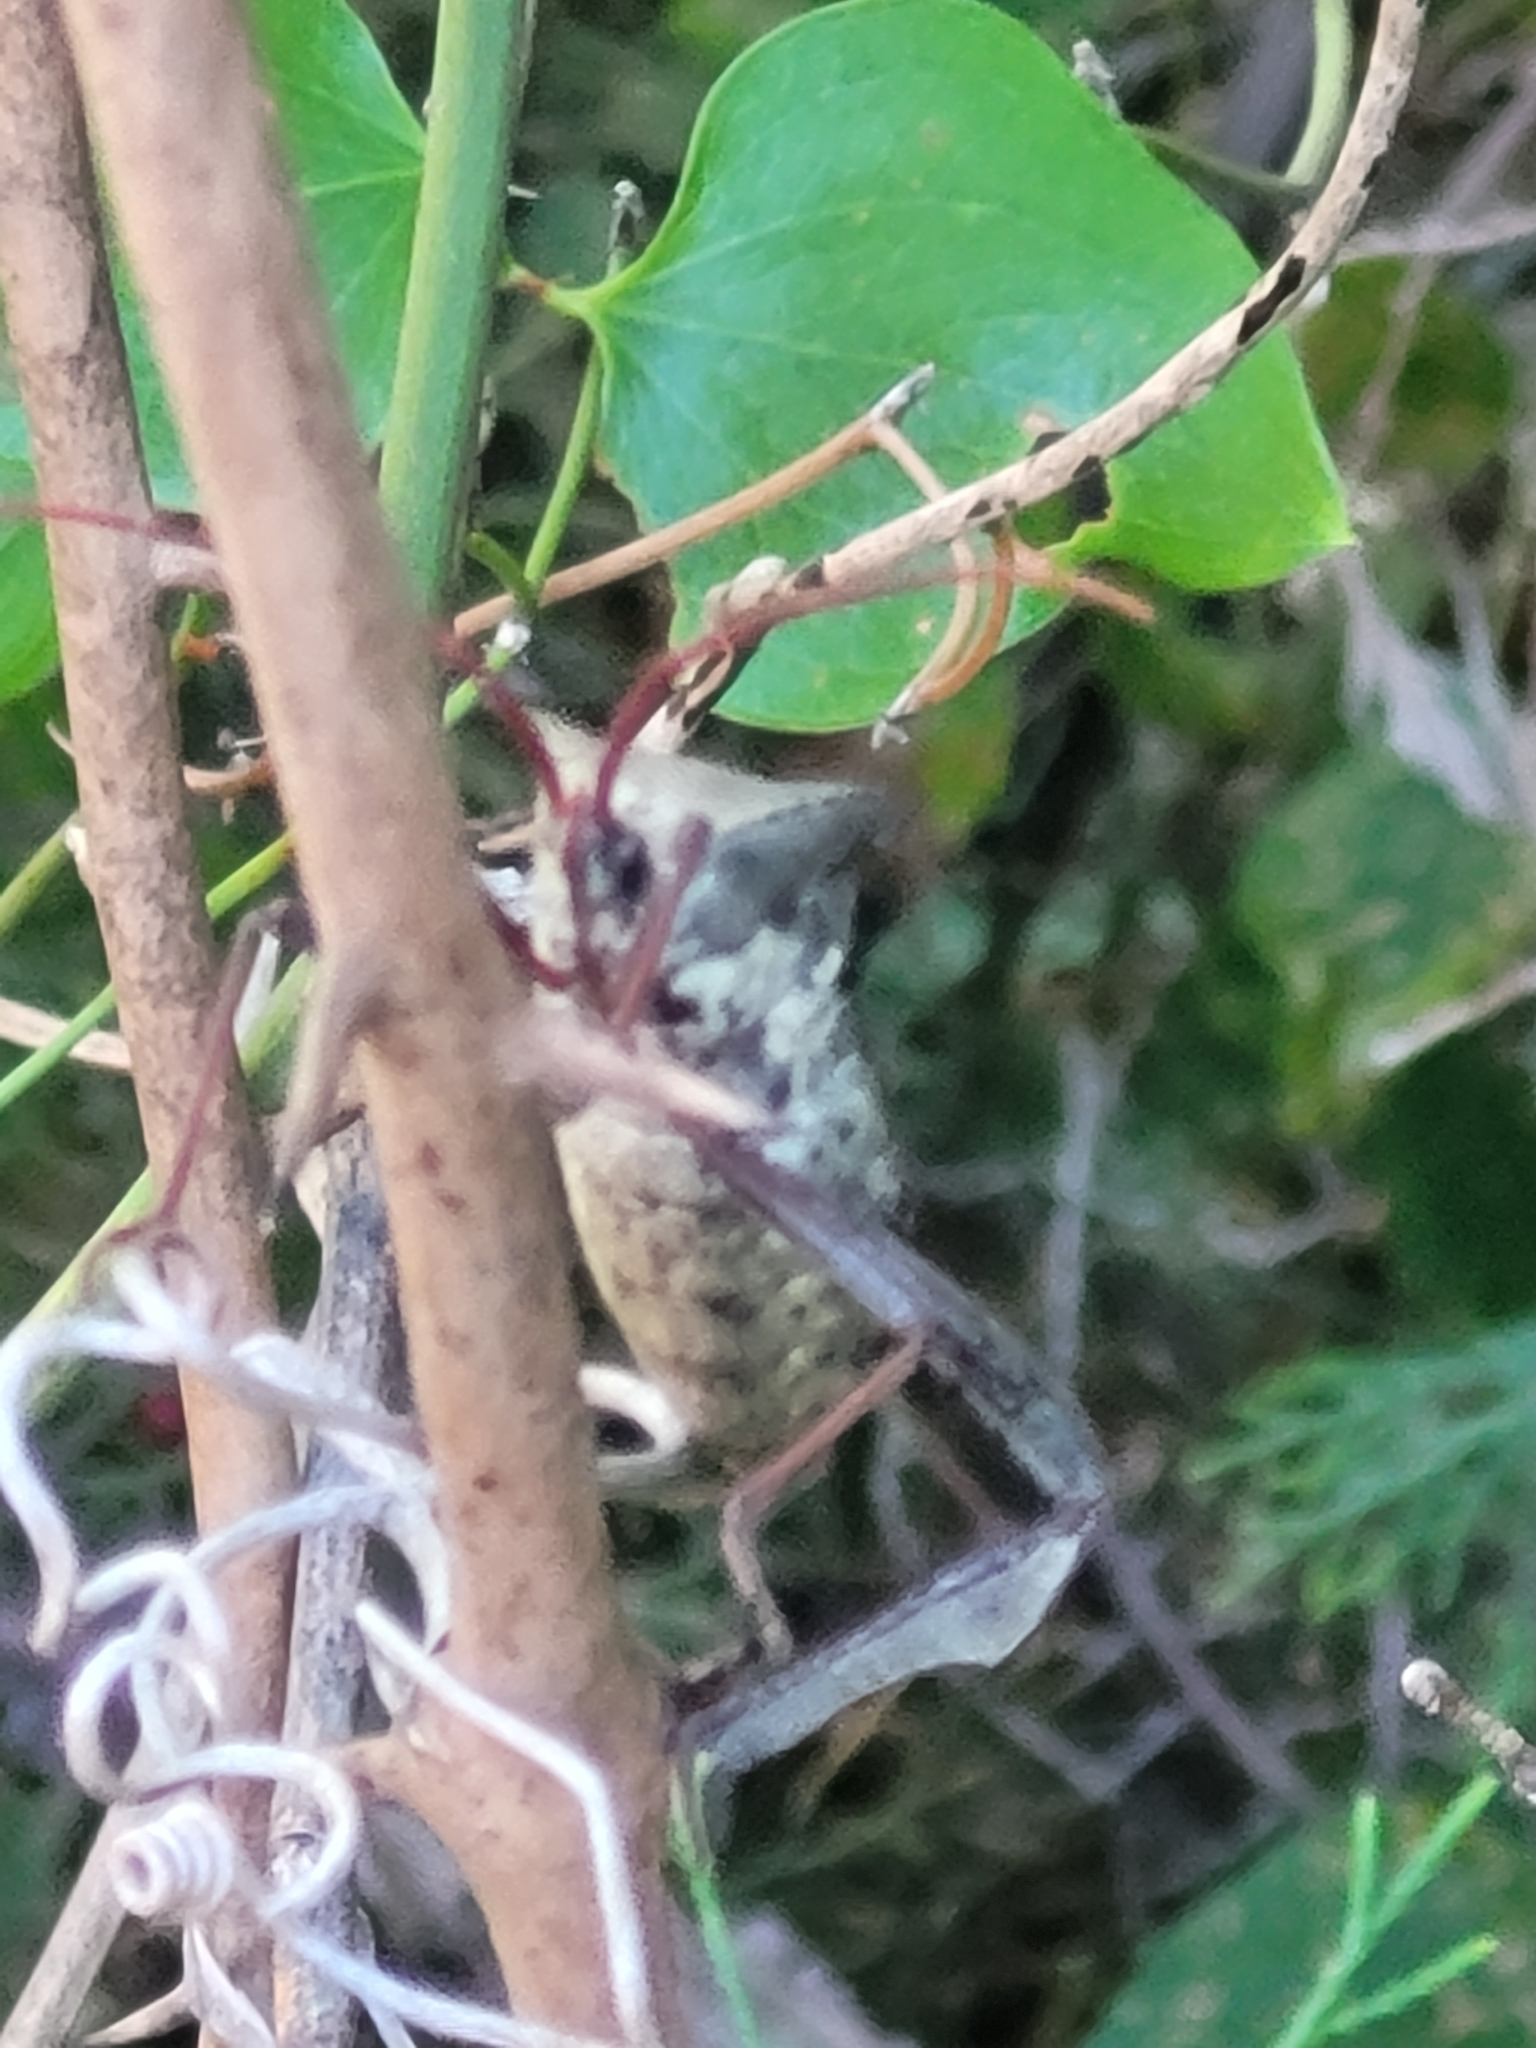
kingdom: Animalia
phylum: Arthropoda
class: Insecta
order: Hemiptera
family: Coreidae
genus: Acanthocephala
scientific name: Acanthocephala declivis
